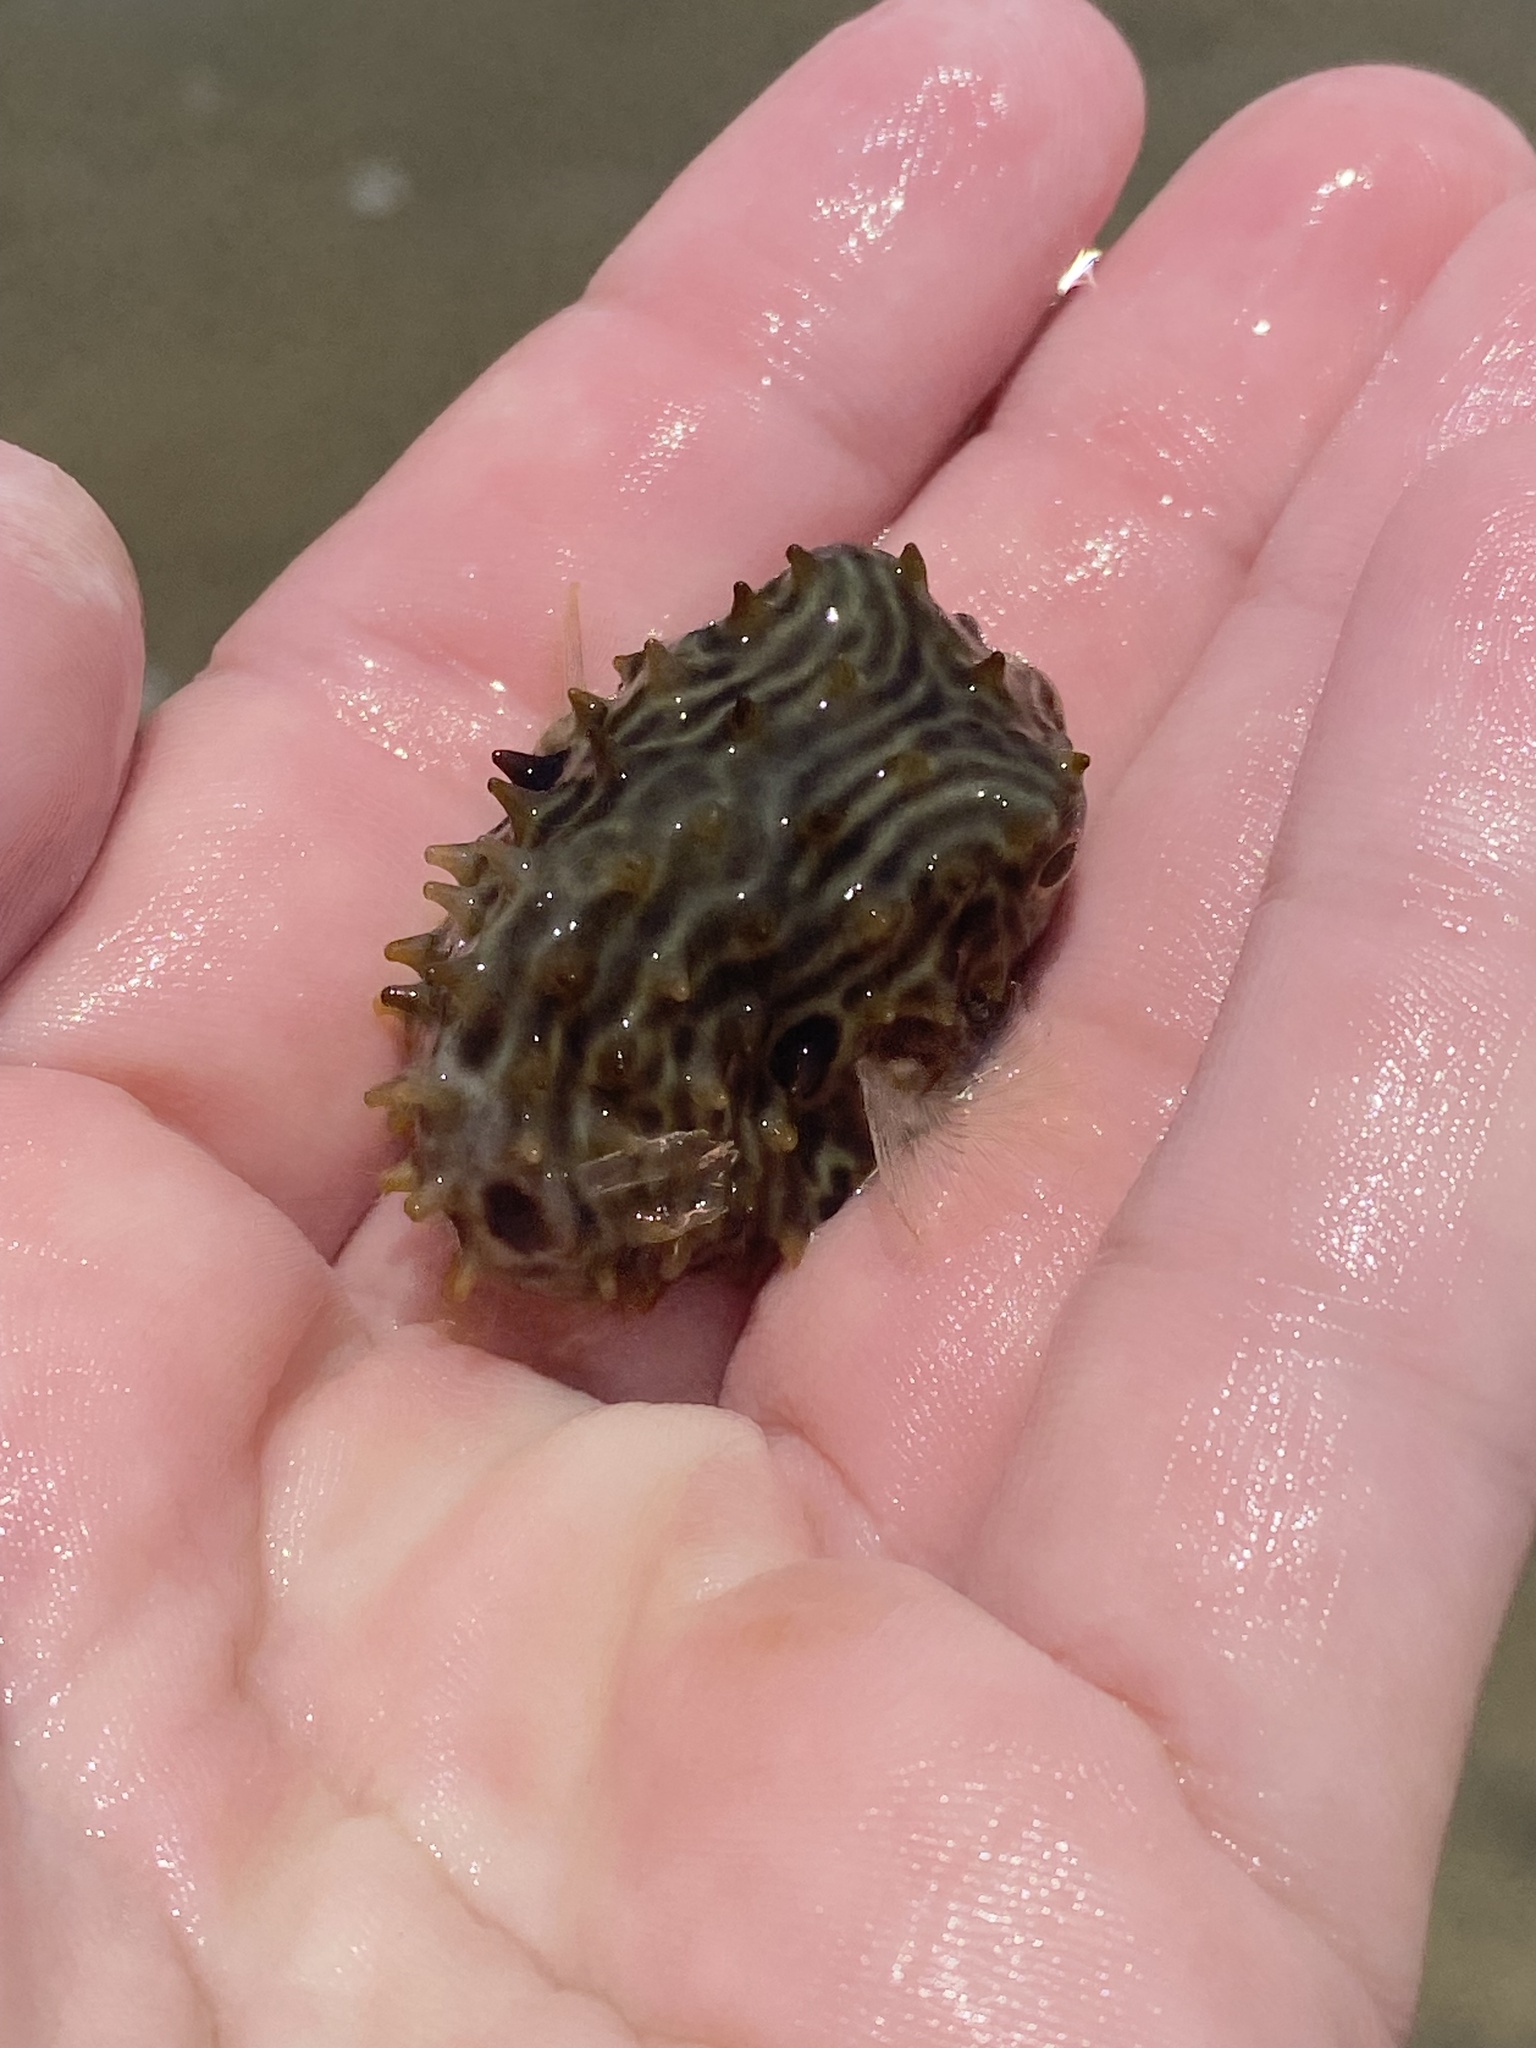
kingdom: Animalia
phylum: Chordata
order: Tetraodontiformes
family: Diodontidae
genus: Chilomycterus
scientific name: Chilomycterus schoepfii
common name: Striped burrfish
